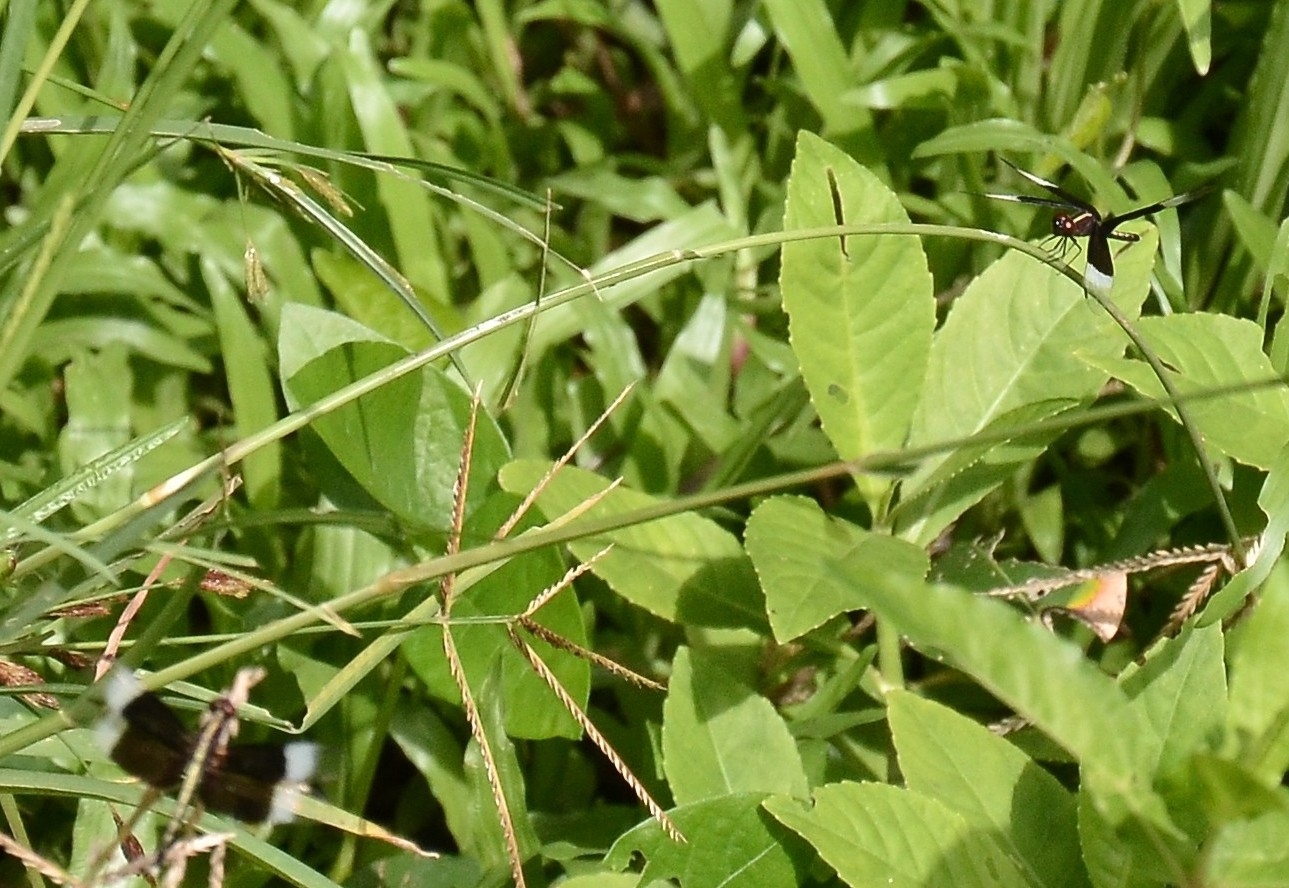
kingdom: Animalia
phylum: Arthropoda
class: Insecta
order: Odonata
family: Libellulidae
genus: Neurothemis
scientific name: Neurothemis tullia
